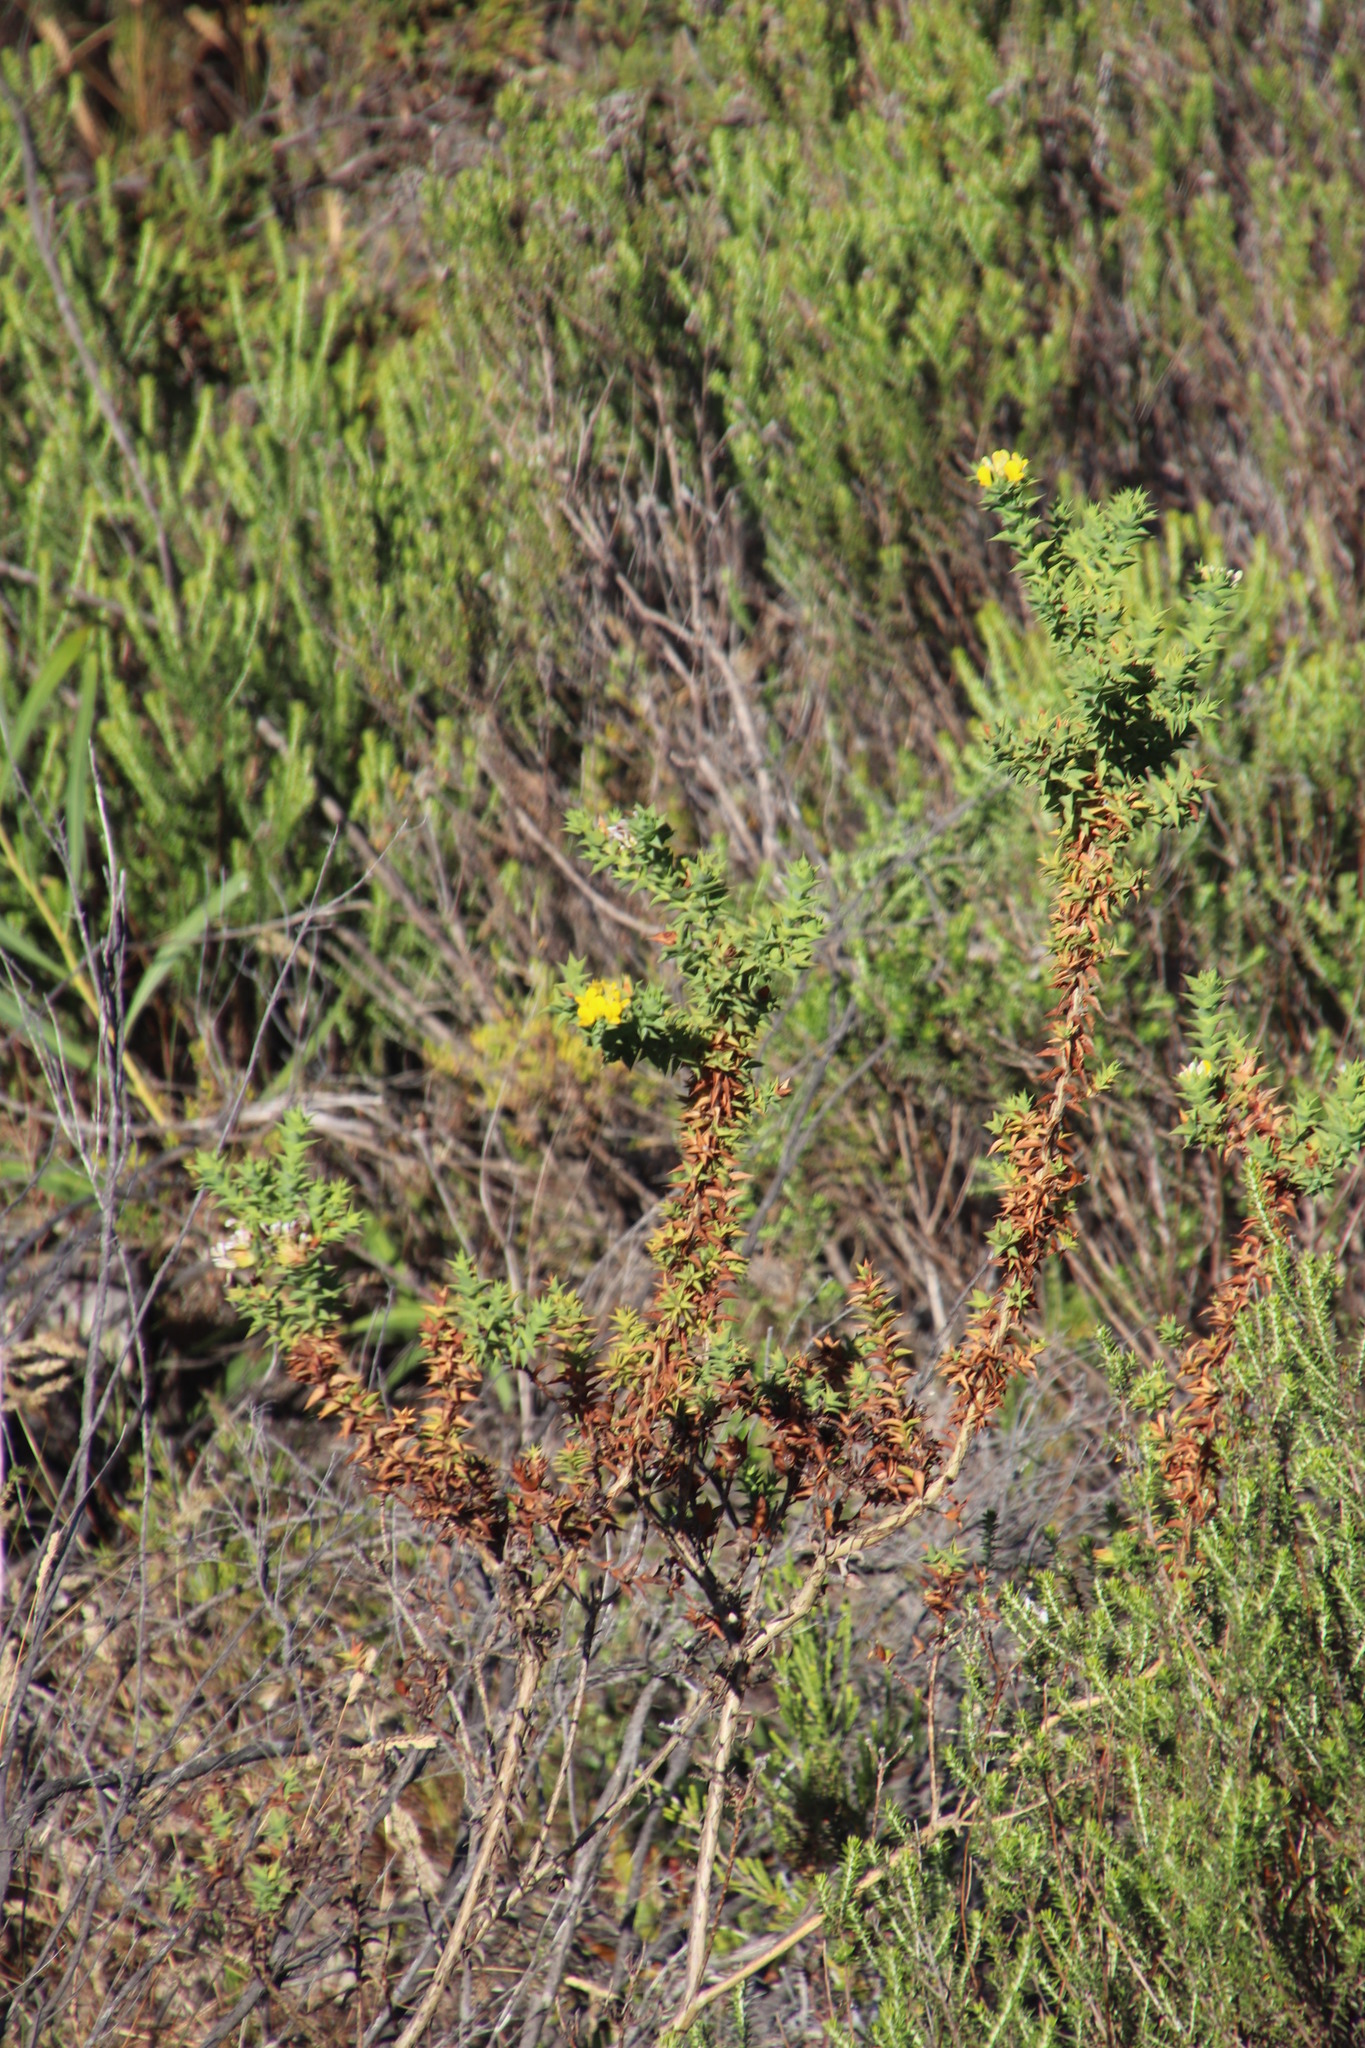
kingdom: Plantae
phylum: Tracheophyta
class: Magnoliopsida
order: Fabales
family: Fabaceae
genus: Aspalathus
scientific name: Aspalathus cordata
